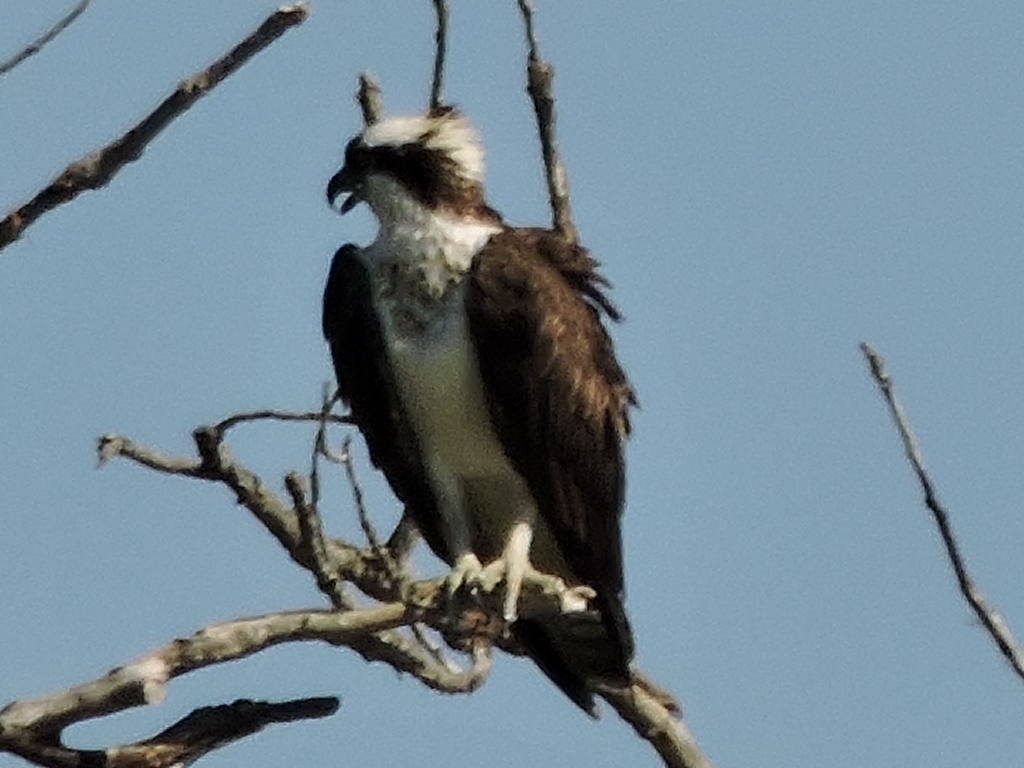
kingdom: Animalia
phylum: Chordata
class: Aves
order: Accipitriformes
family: Pandionidae
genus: Pandion
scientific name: Pandion haliaetus
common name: Osprey
